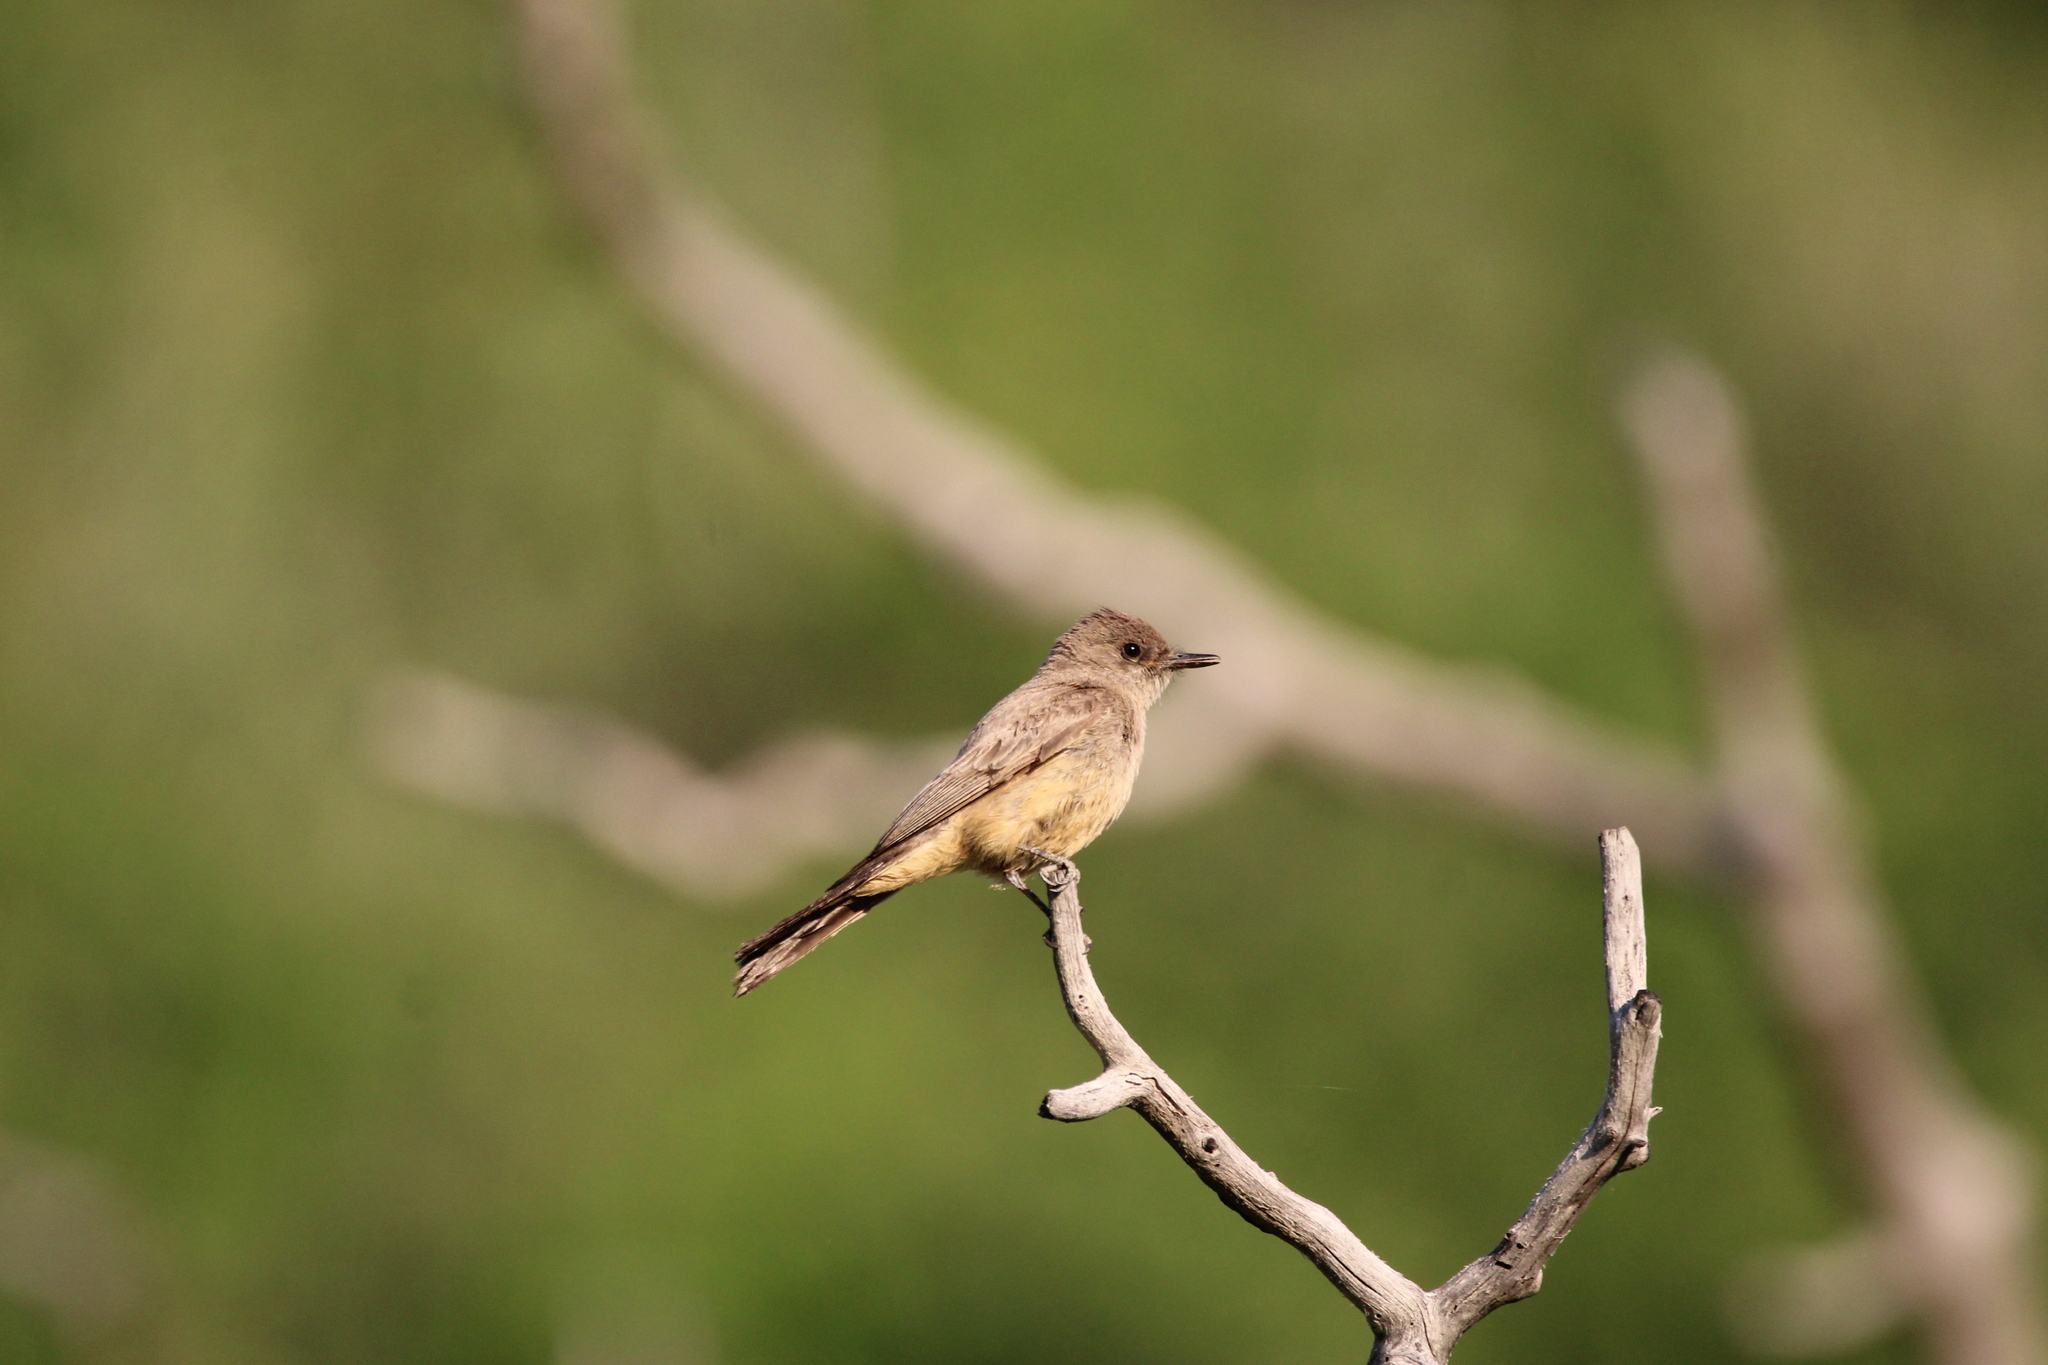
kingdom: Animalia
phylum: Chordata
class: Aves
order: Passeriformes
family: Tyrannidae
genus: Sayornis
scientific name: Sayornis saya
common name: Say's phoebe
